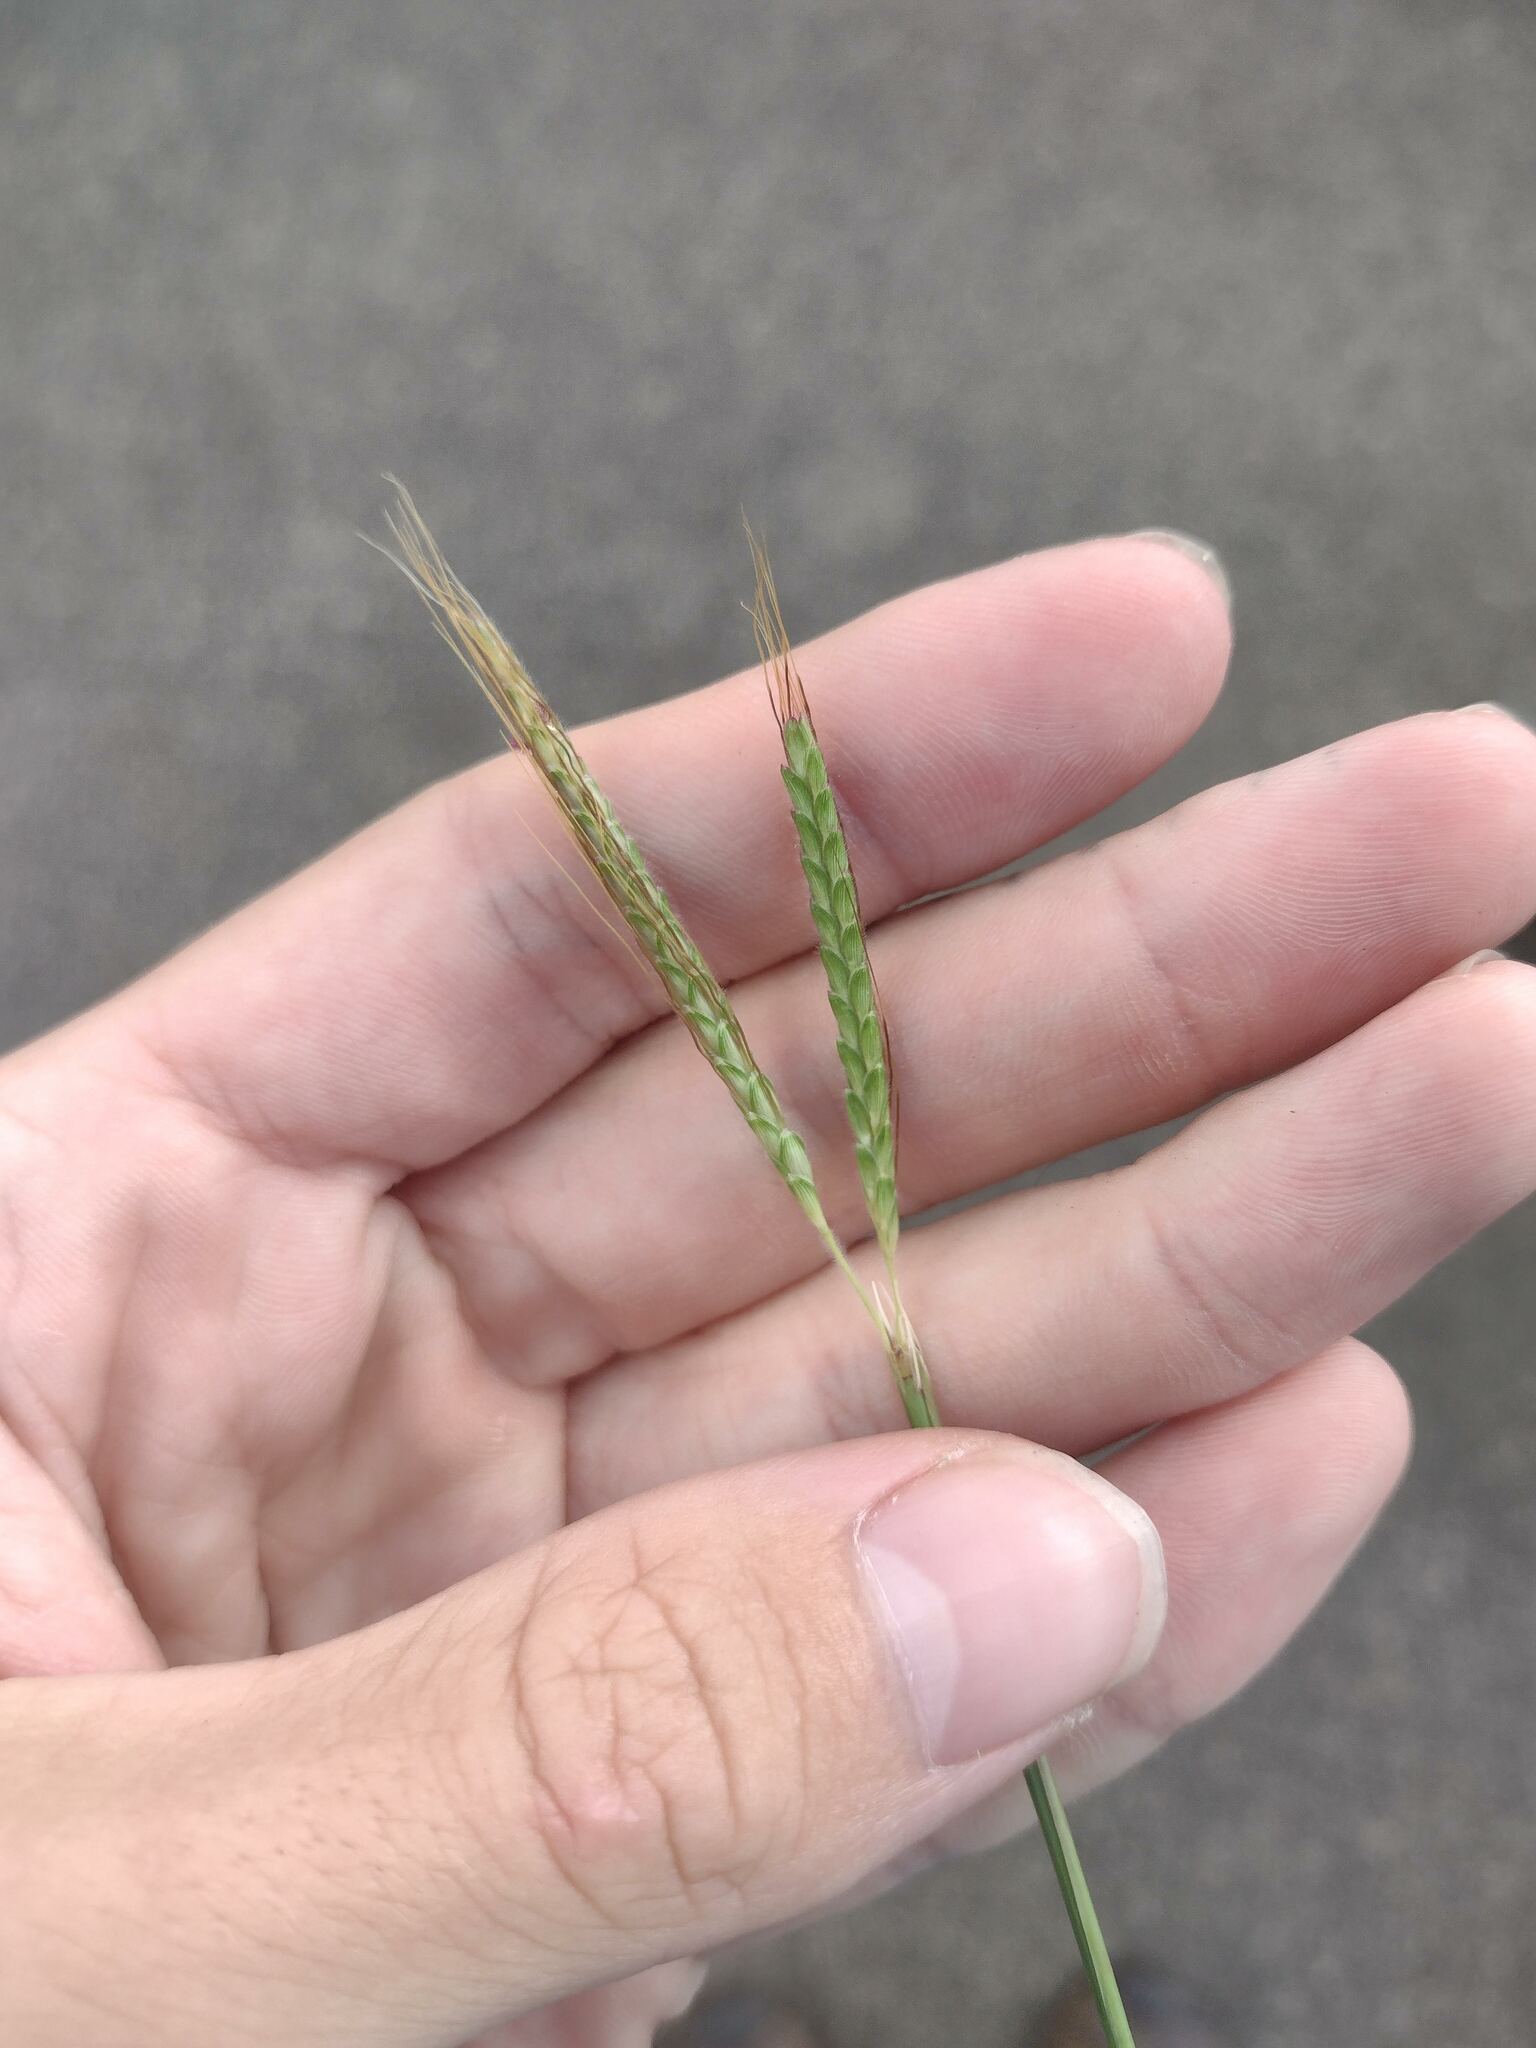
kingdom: Plantae
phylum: Tracheophyta
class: Liliopsida
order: Poales
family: Poaceae
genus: Dichanthium
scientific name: Dichanthium aristatum
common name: Angleton bluestem
